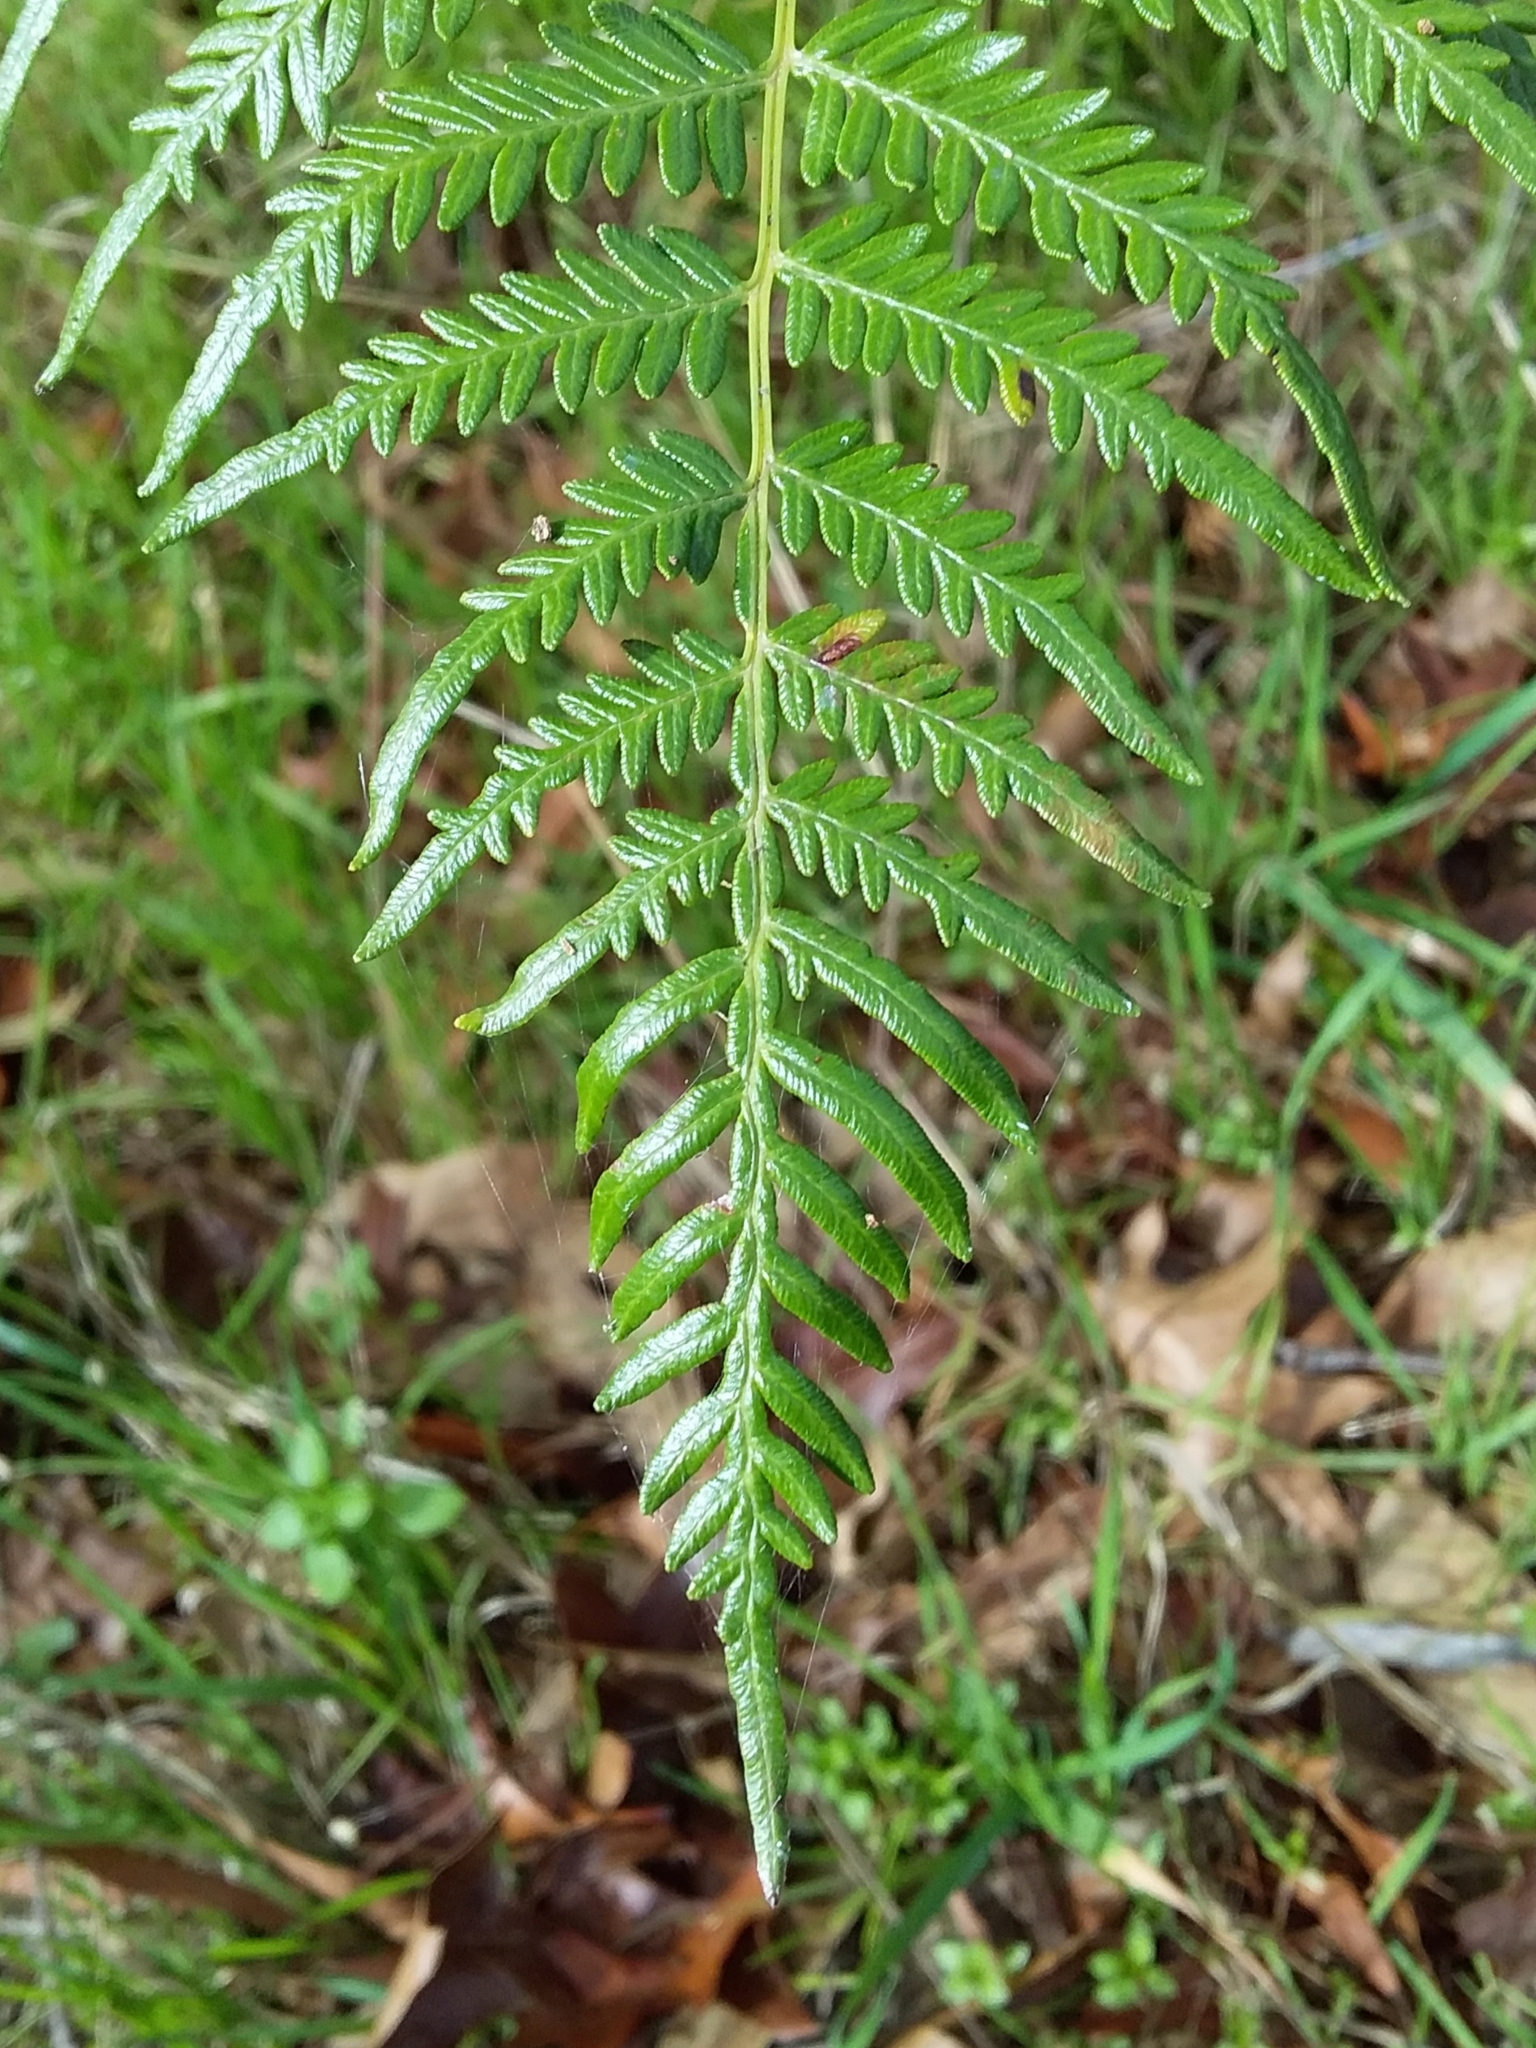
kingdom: Plantae
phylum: Tracheophyta
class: Polypodiopsida
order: Polypodiales
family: Dennstaedtiaceae
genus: Pteridium
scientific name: Pteridium esculentum
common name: Bracken fern
